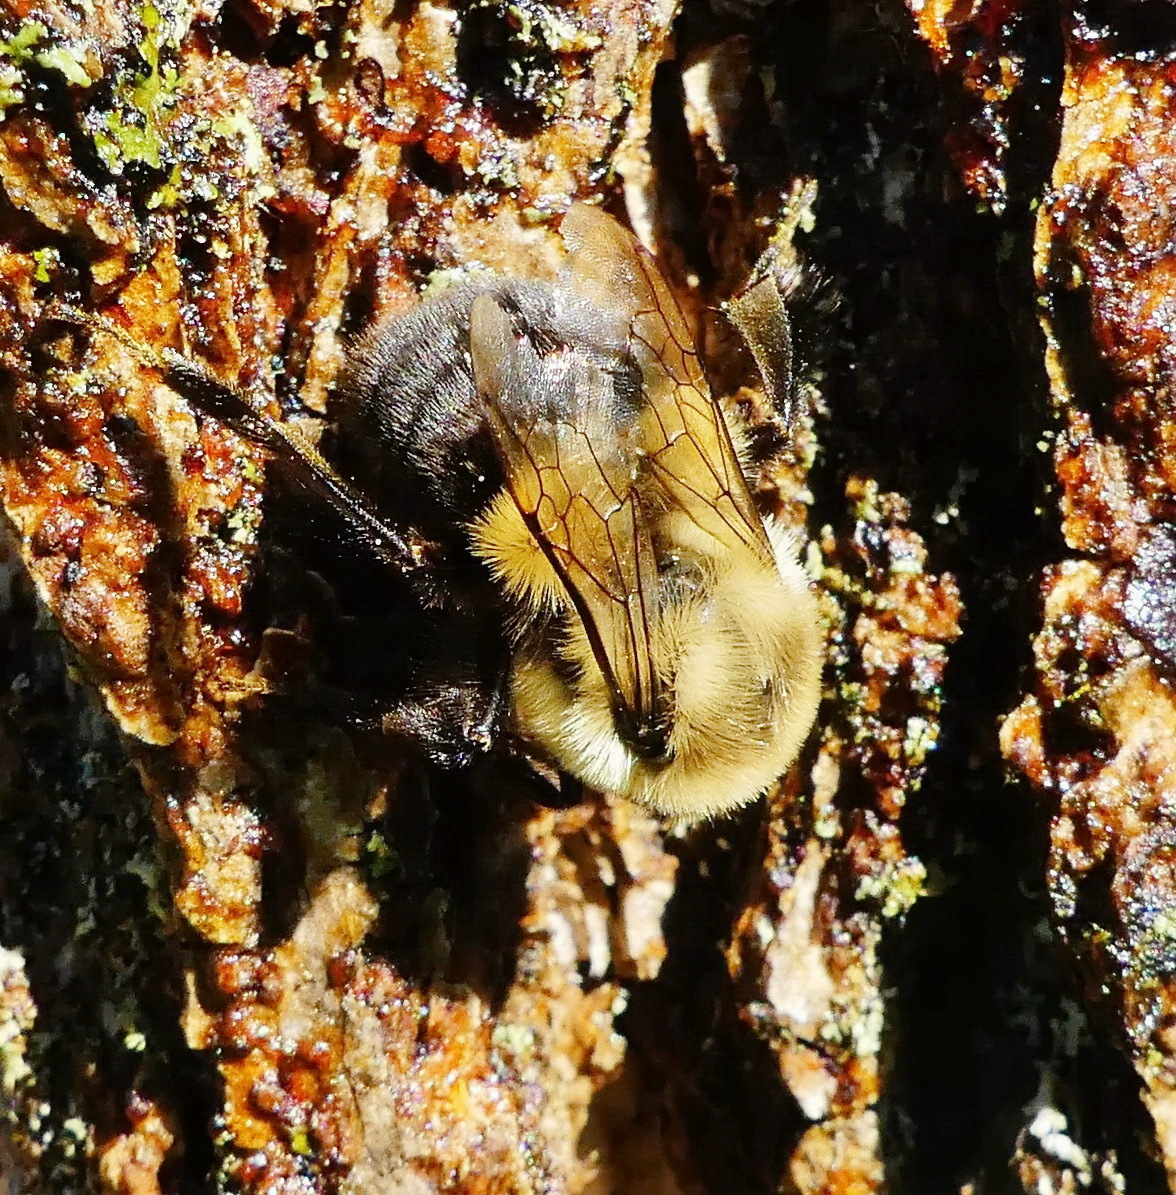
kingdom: Animalia
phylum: Arthropoda
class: Insecta
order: Hymenoptera
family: Apidae
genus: Bombus
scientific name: Bombus impatiens
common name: Common eastern bumble bee
